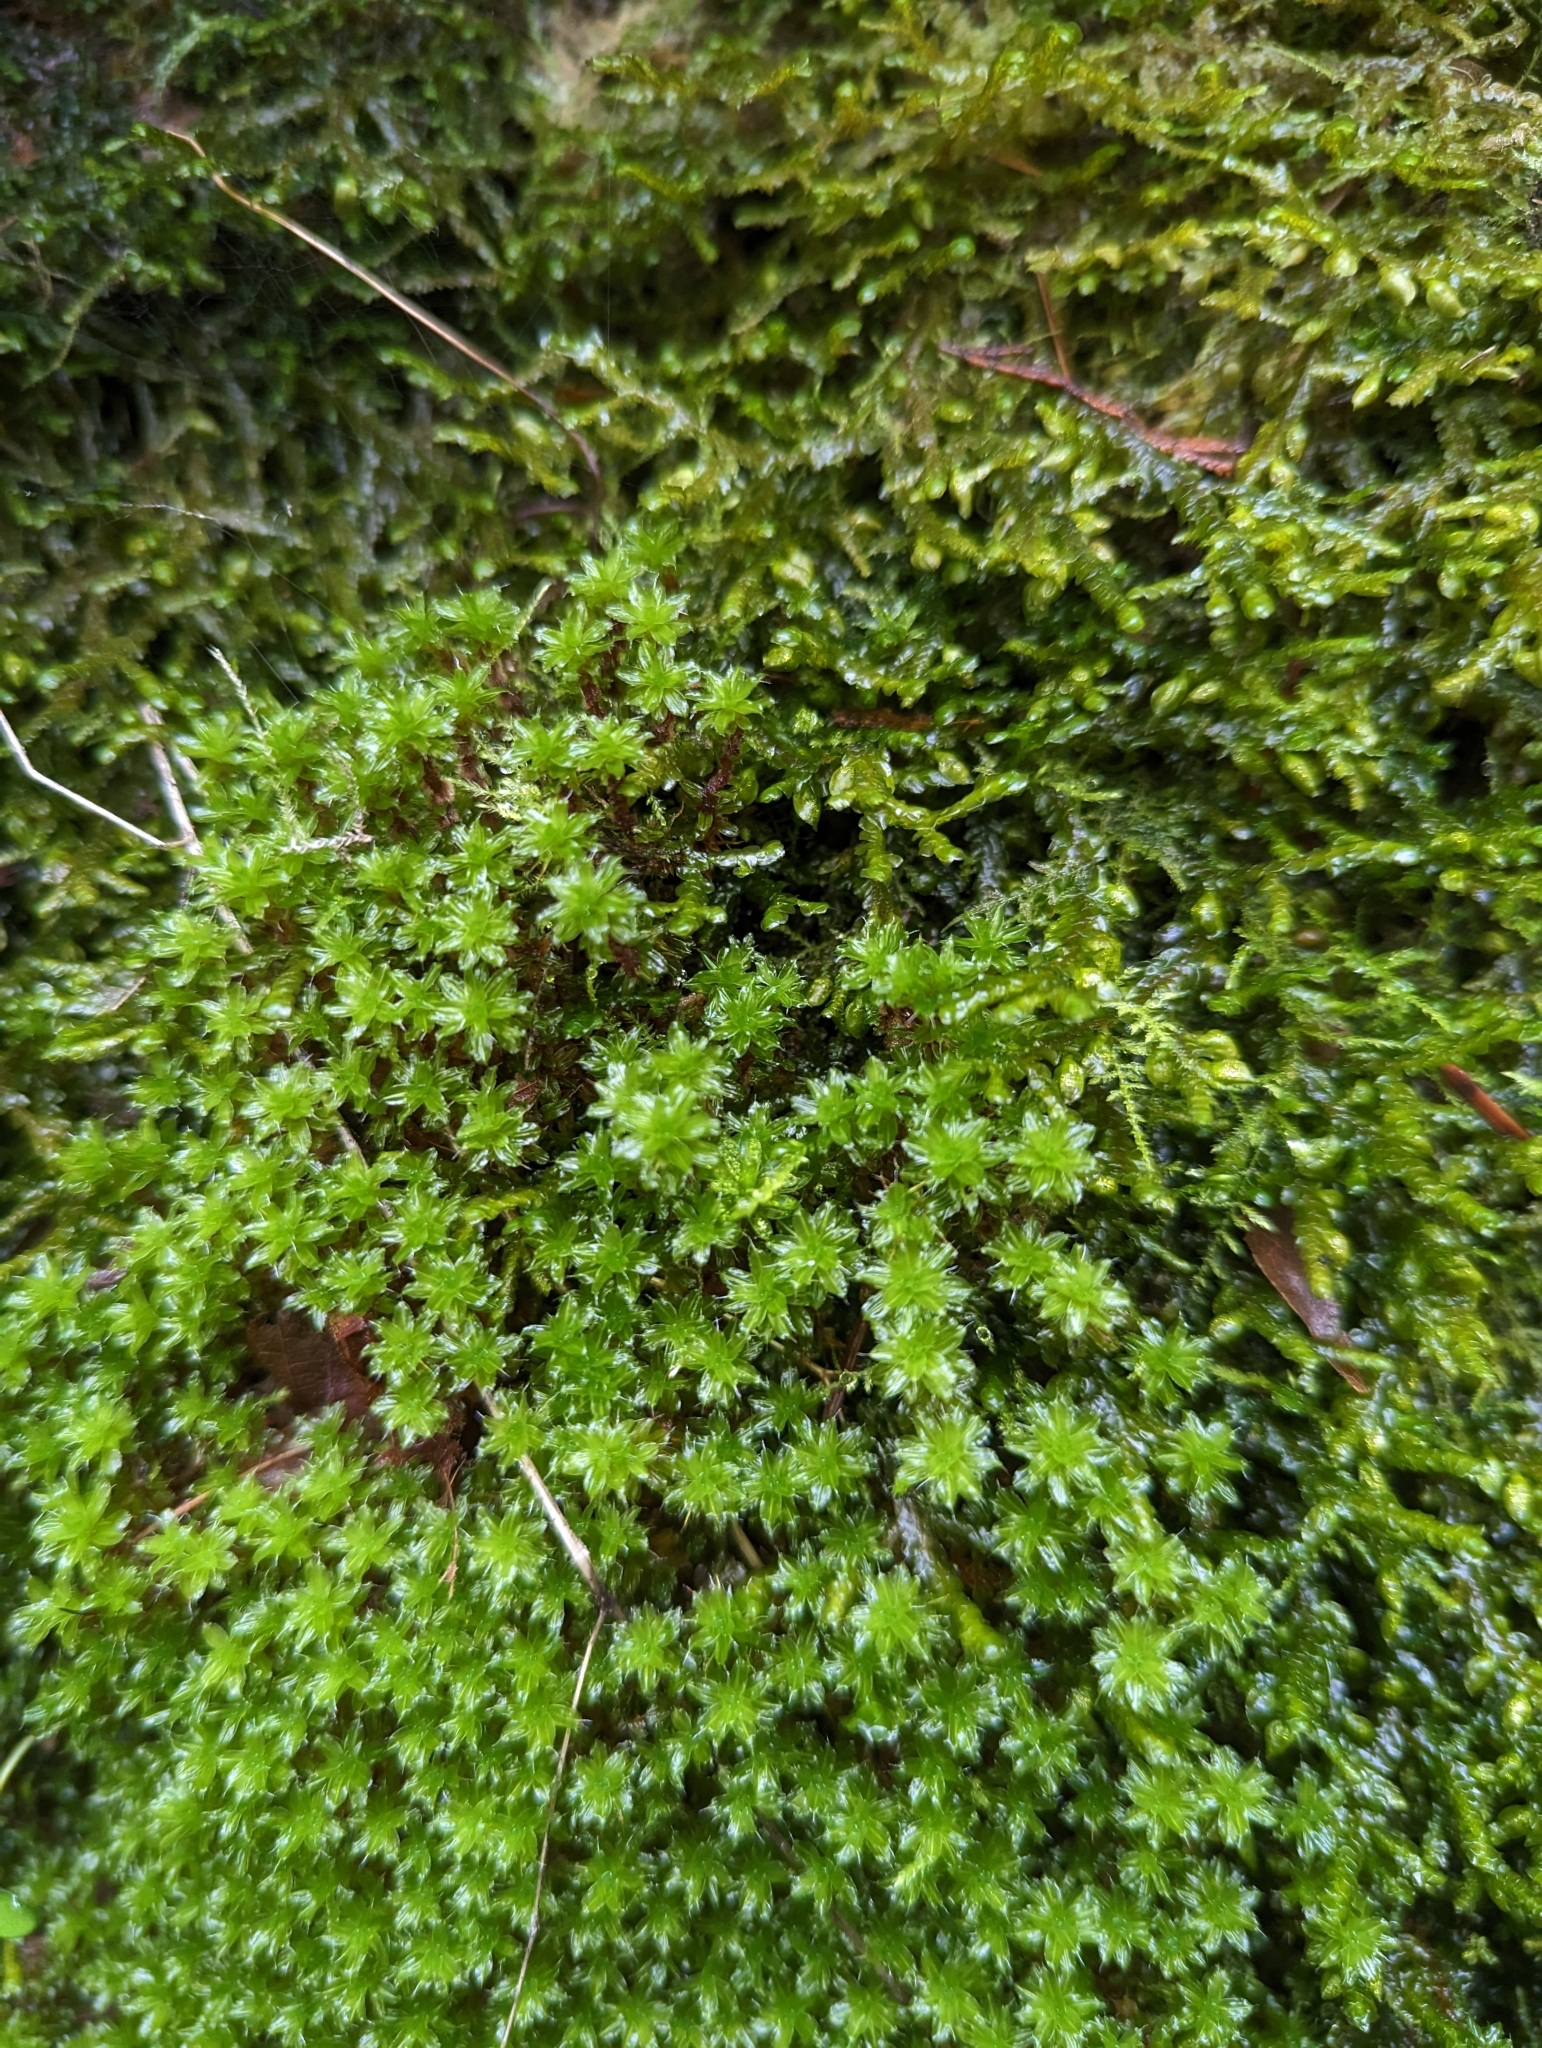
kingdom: Plantae
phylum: Bryophyta
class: Bryopsida
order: Bryales
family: Mniaceae
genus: Plagiomnium
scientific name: Plagiomnium venustum
